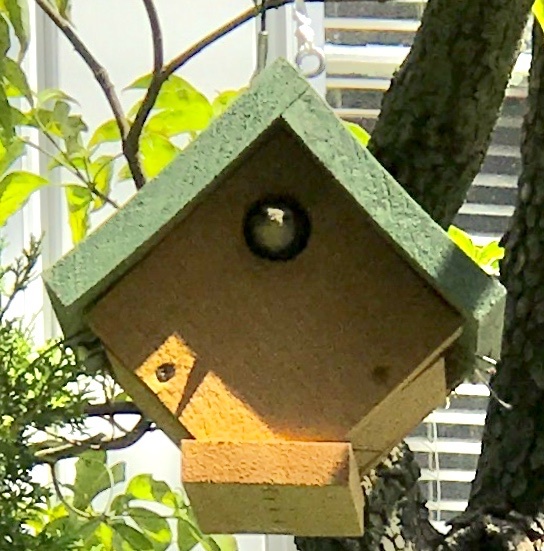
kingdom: Animalia
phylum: Chordata
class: Aves
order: Passeriformes
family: Troglodytidae
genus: Troglodytes
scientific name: Troglodytes aedon
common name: House wren
